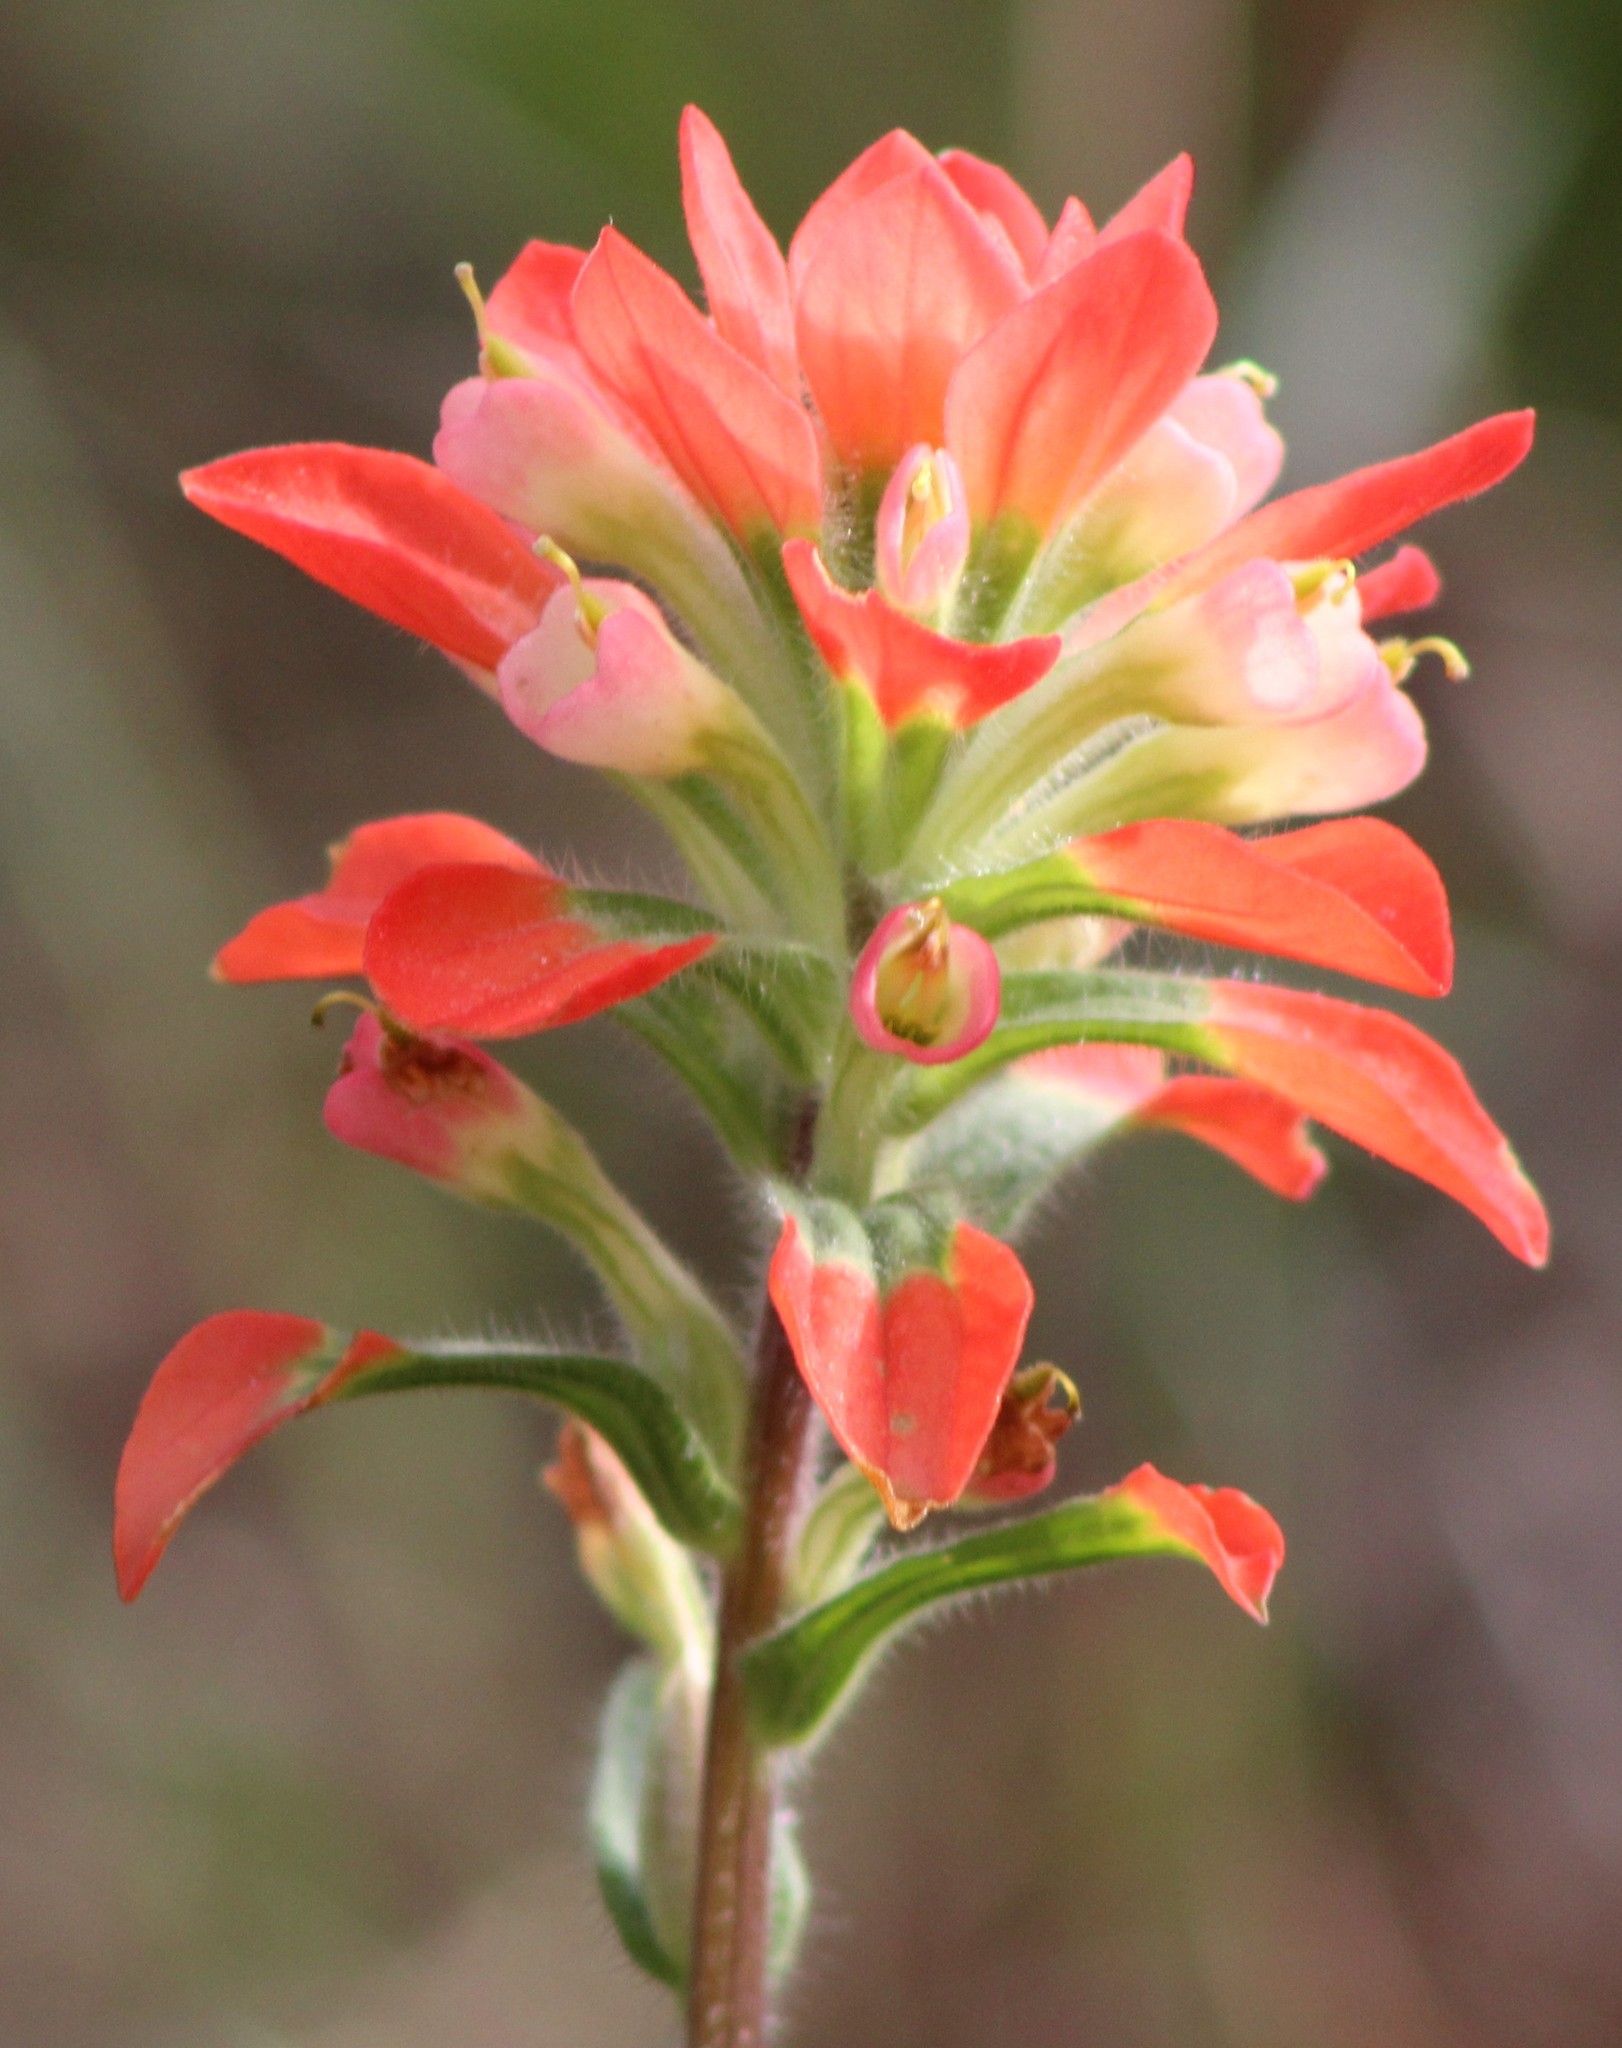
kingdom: Plantae
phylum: Tracheophyta
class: Magnoliopsida
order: Lamiales
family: Orobanchaceae
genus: Castilleja
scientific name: Castilleja indivisa
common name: Texas paintbrush
